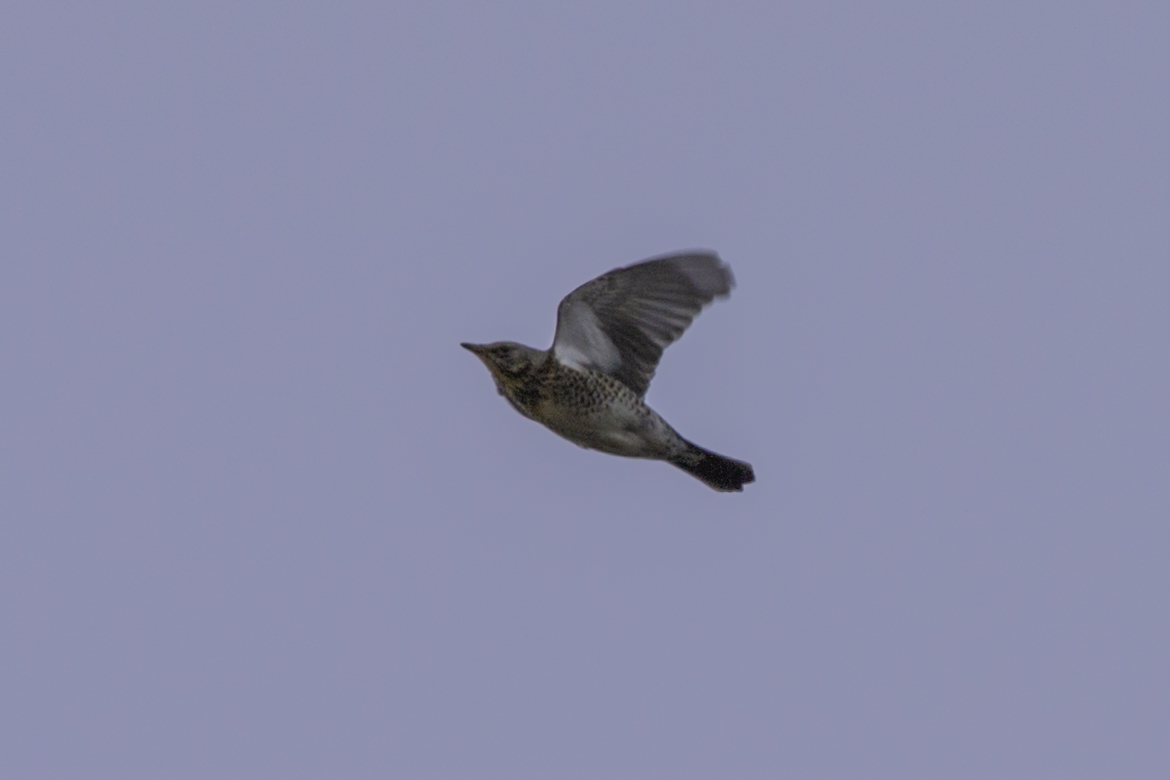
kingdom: Animalia
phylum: Chordata
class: Aves
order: Passeriformes
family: Turdidae
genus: Turdus
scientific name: Turdus pilaris
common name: Fieldfare
